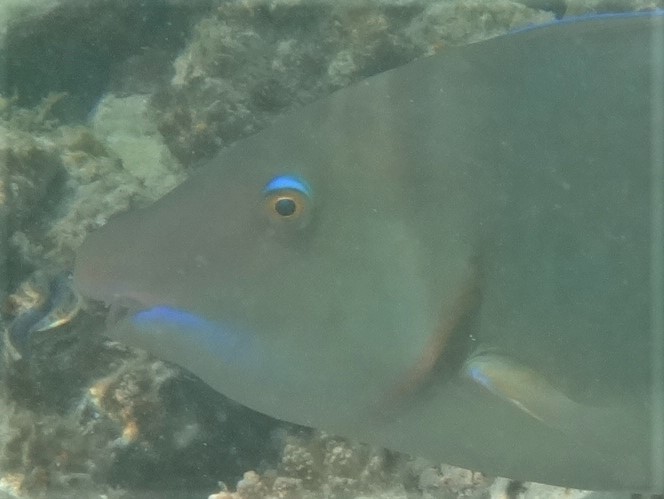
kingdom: Animalia
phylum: Chordata
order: Perciformes
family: Scaridae
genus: Hipposcarus
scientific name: Hipposcarus harid
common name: Candelamoa parrotfish
